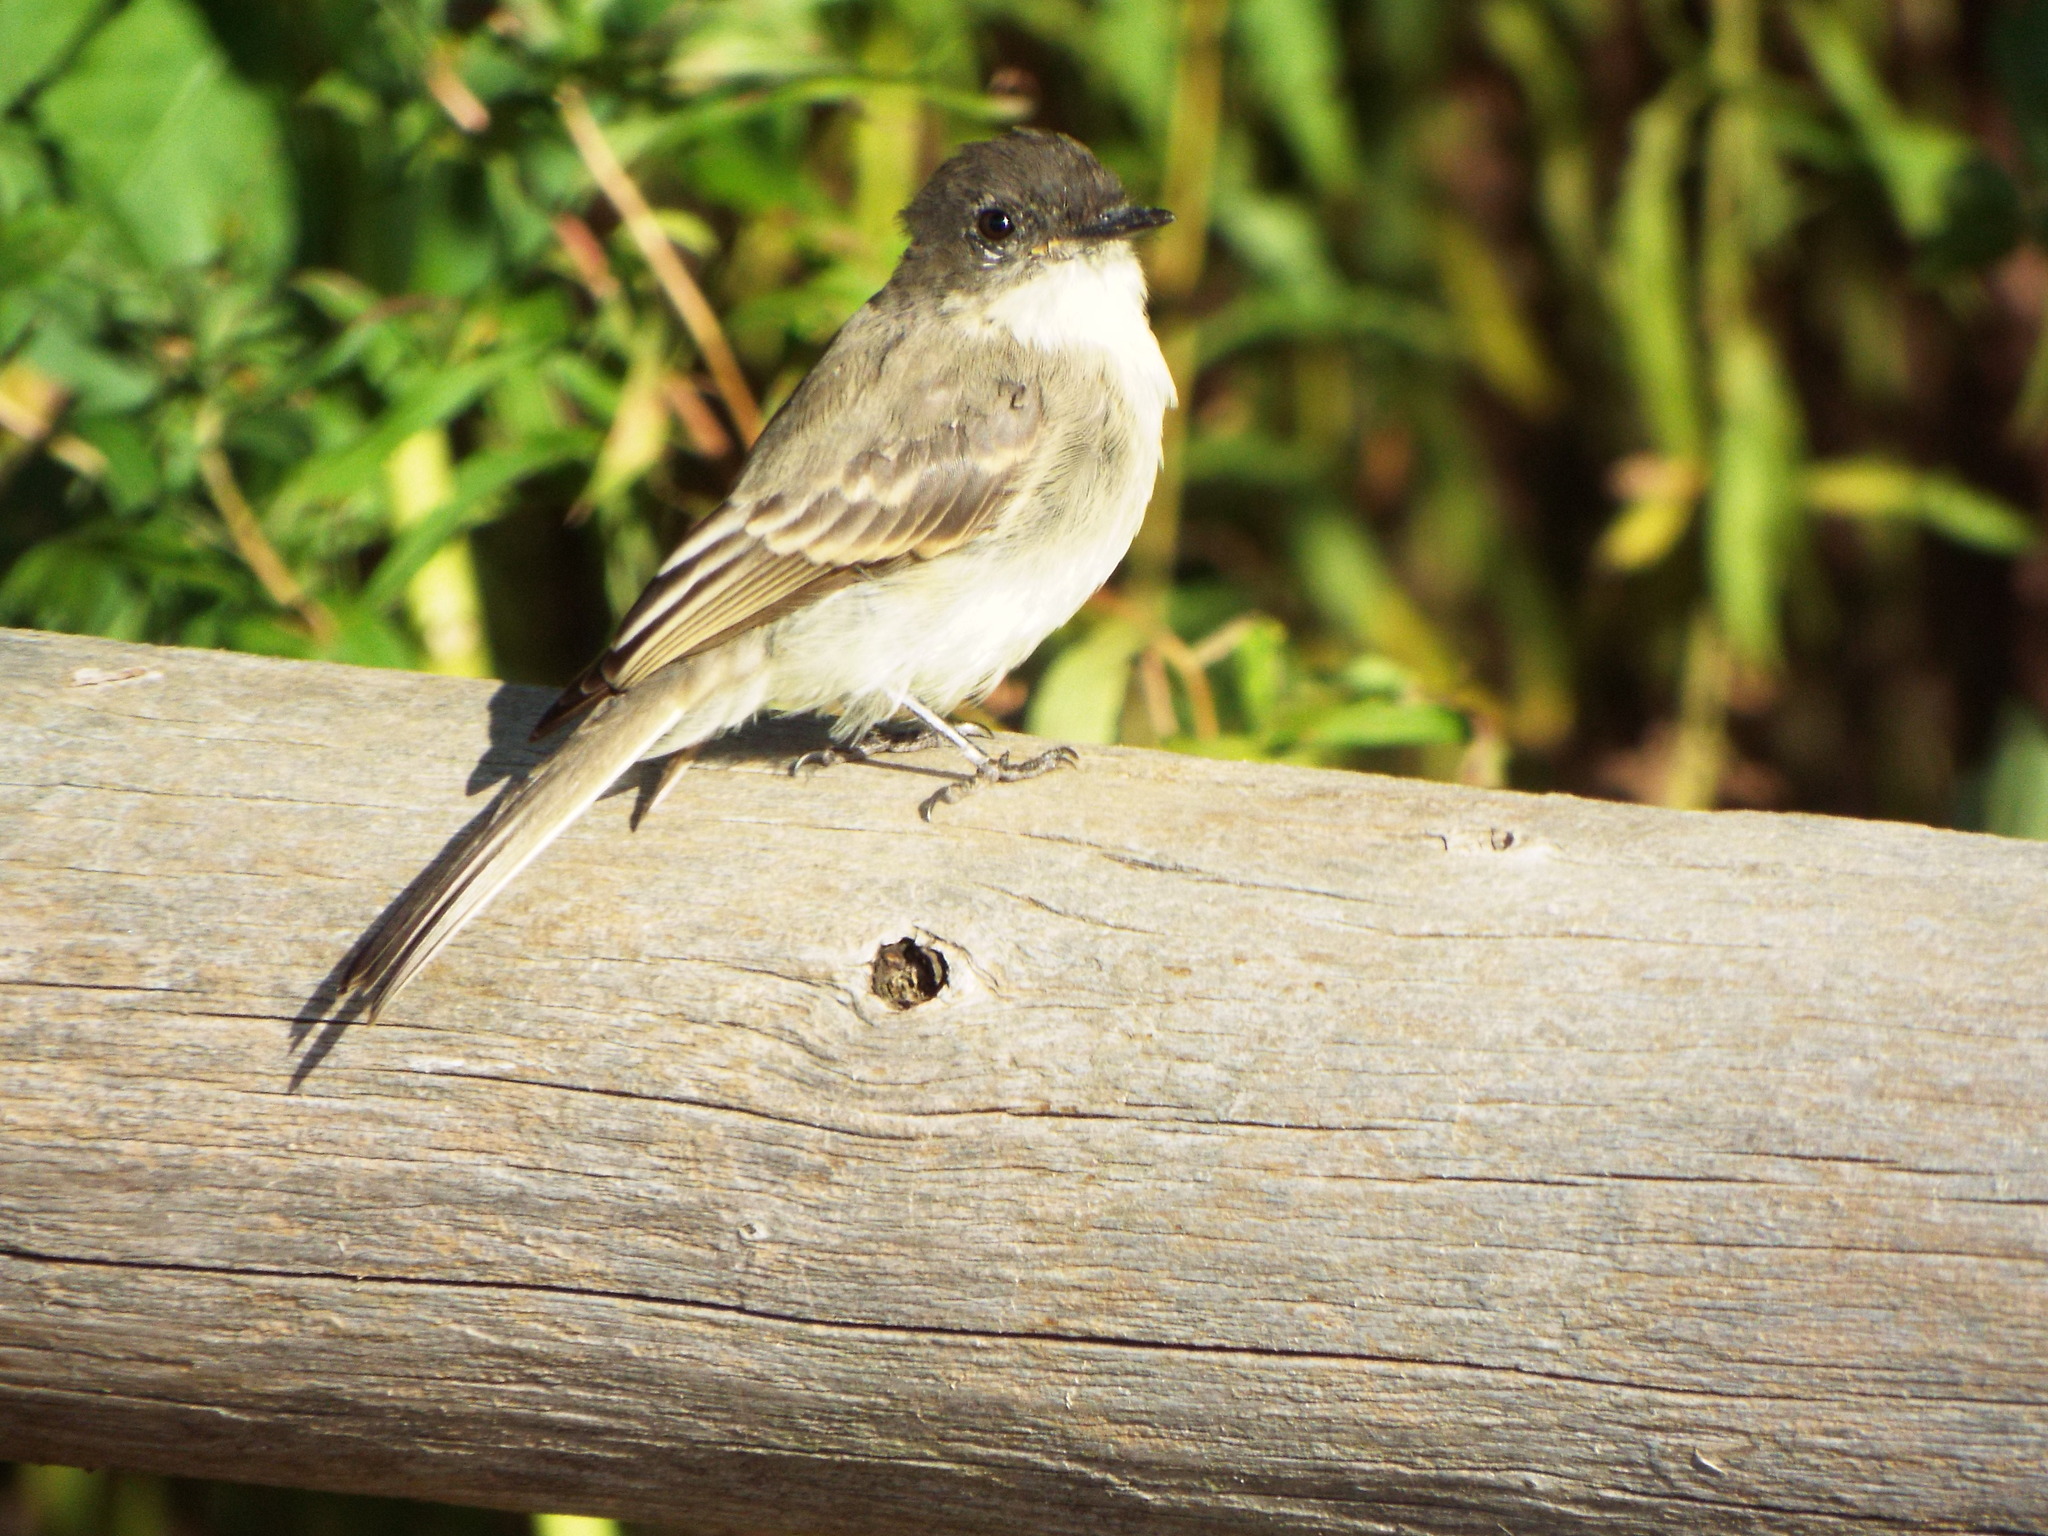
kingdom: Animalia
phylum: Chordata
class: Aves
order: Passeriformes
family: Tyrannidae
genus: Sayornis
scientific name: Sayornis phoebe
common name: Eastern phoebe
